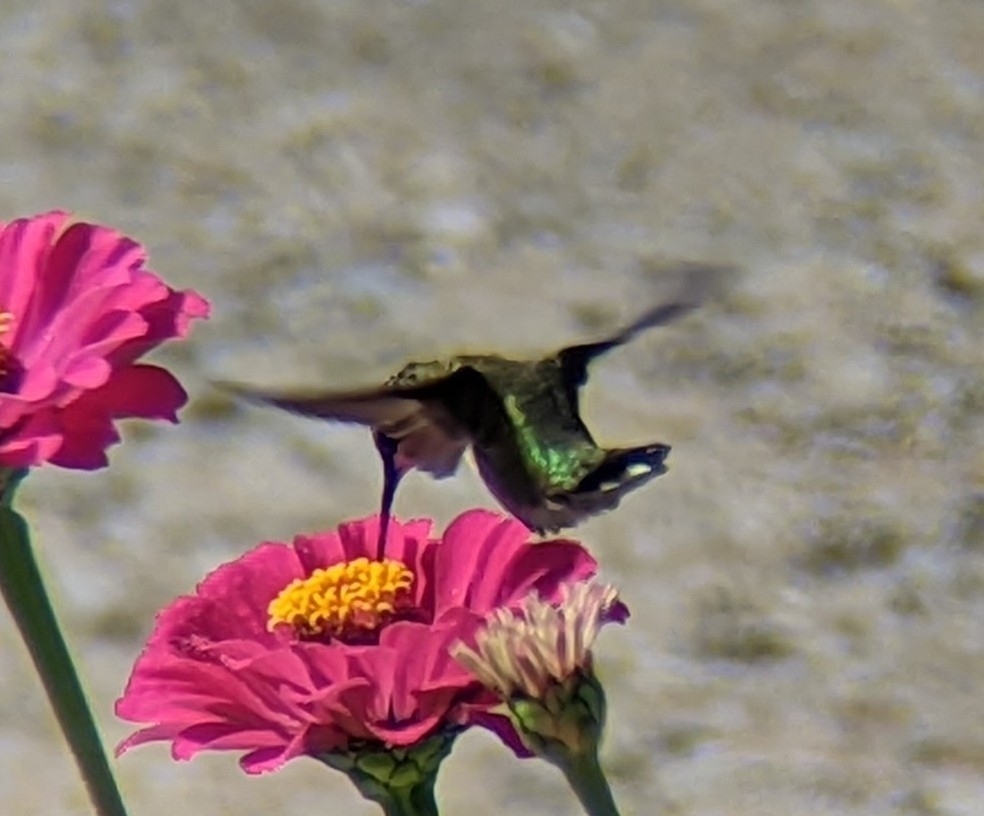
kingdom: Animalia
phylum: Chordata
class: Aves
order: Apodiformes
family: Trochilidae
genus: Archilochus
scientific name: Archilochus colubris
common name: Ruby-throated hummingbird
